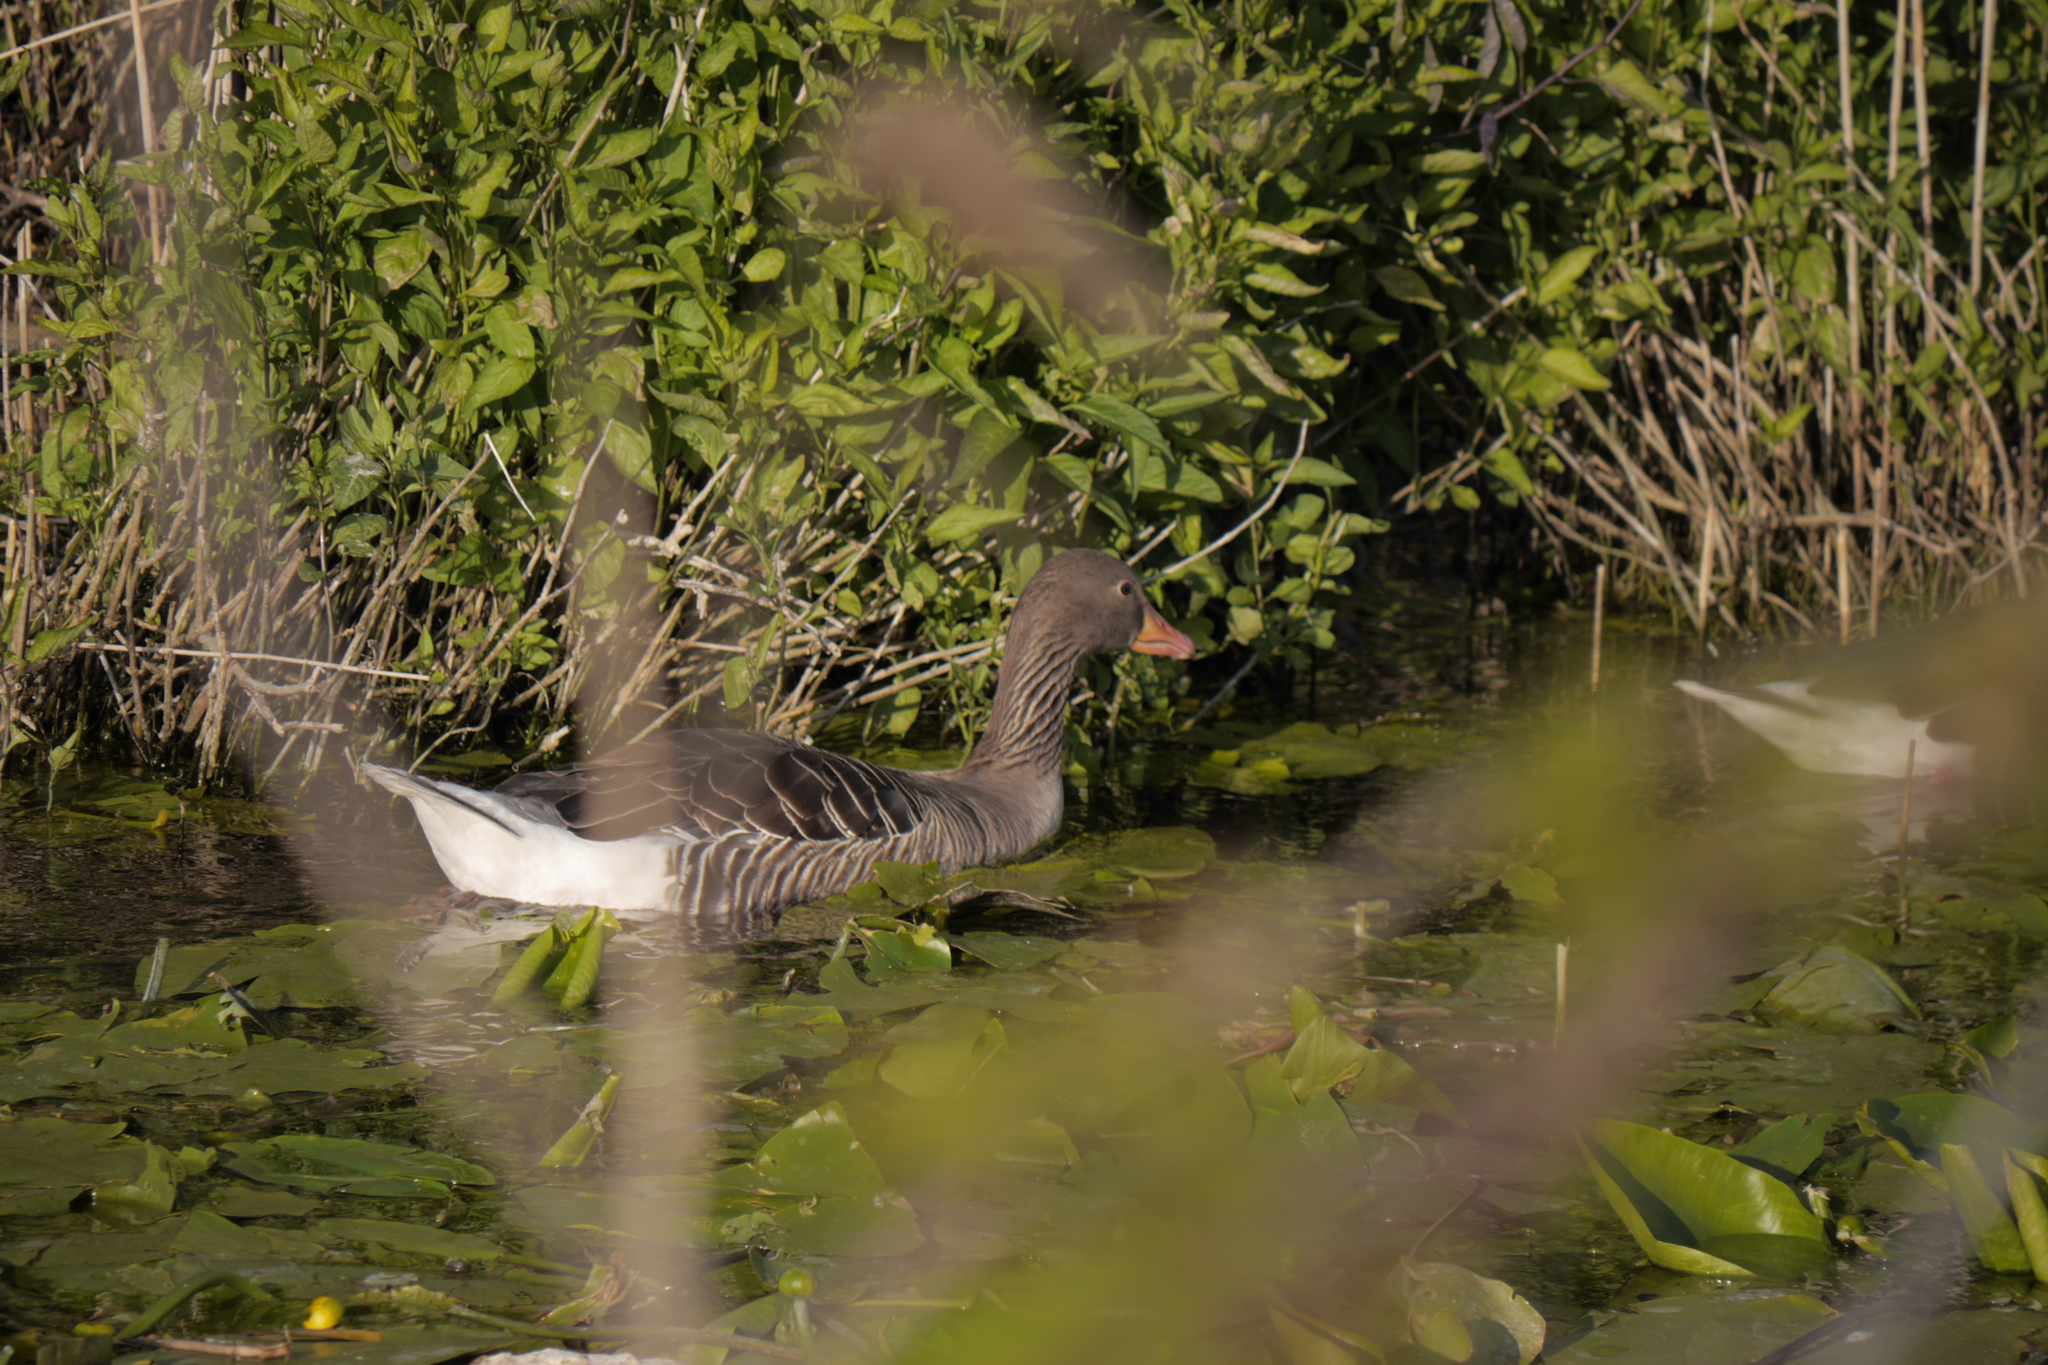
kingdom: Animalia
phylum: Chordata
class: Aves
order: Anseriformes
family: Anatidae
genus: Anser
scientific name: Anser anser
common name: Greylag goose
